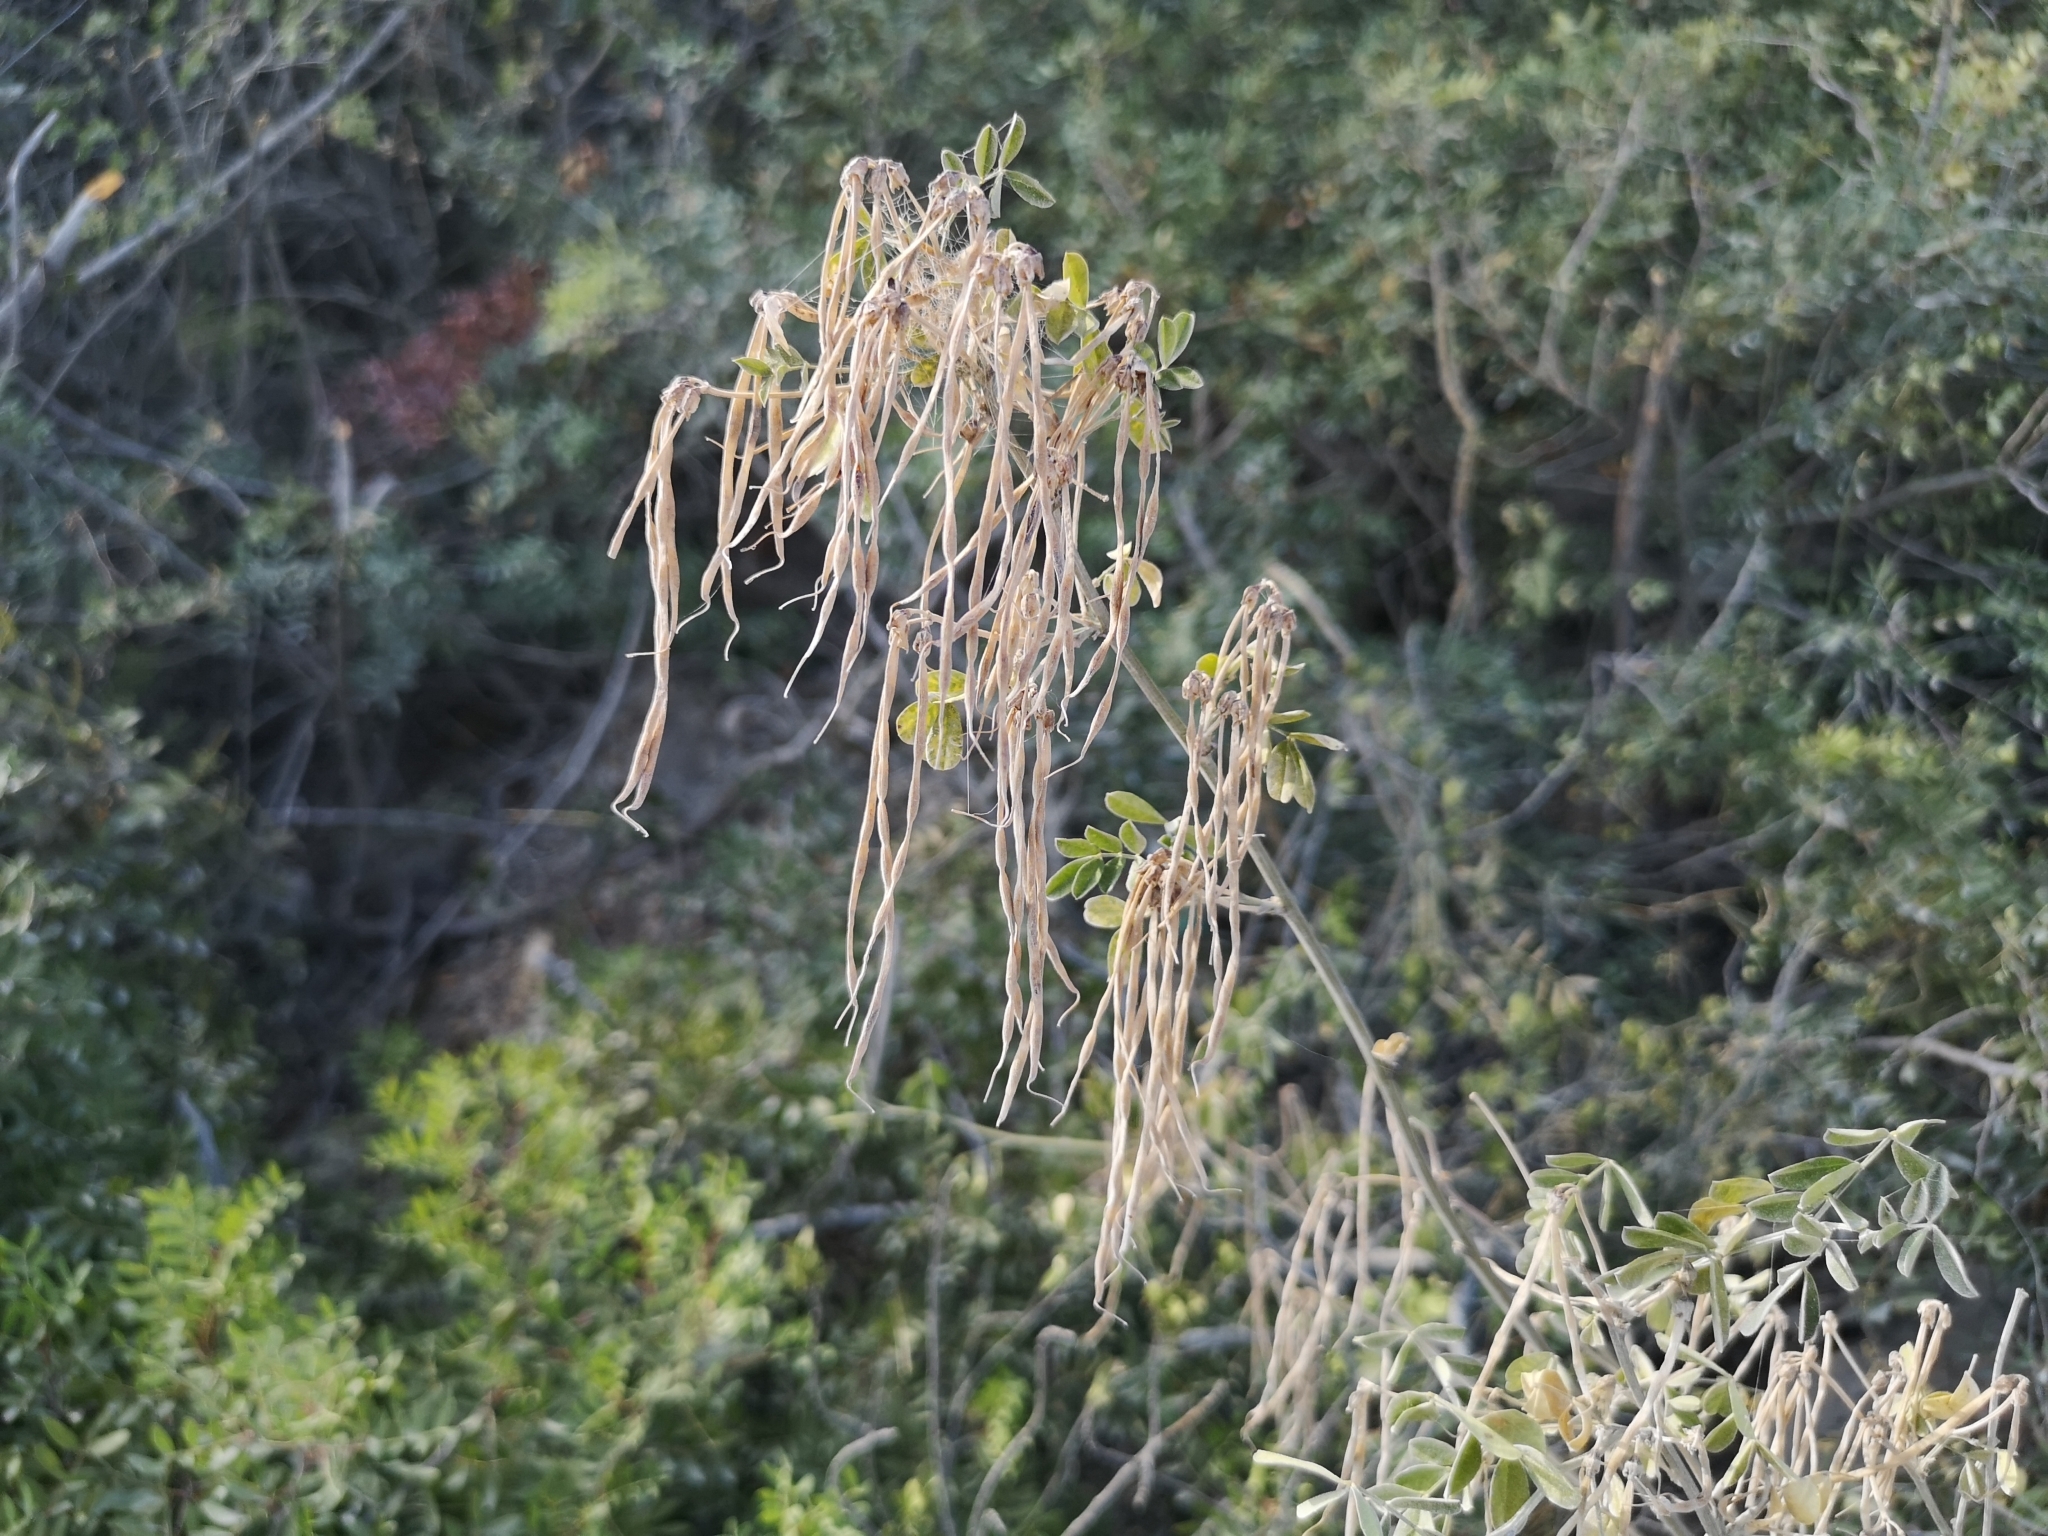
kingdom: Plantae
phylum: Tracheophyta
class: Magnoliopsida
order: Fabales
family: Fabaceae
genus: Hippocrepis
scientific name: Hippocrepis emerus
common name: Scorpion senna
